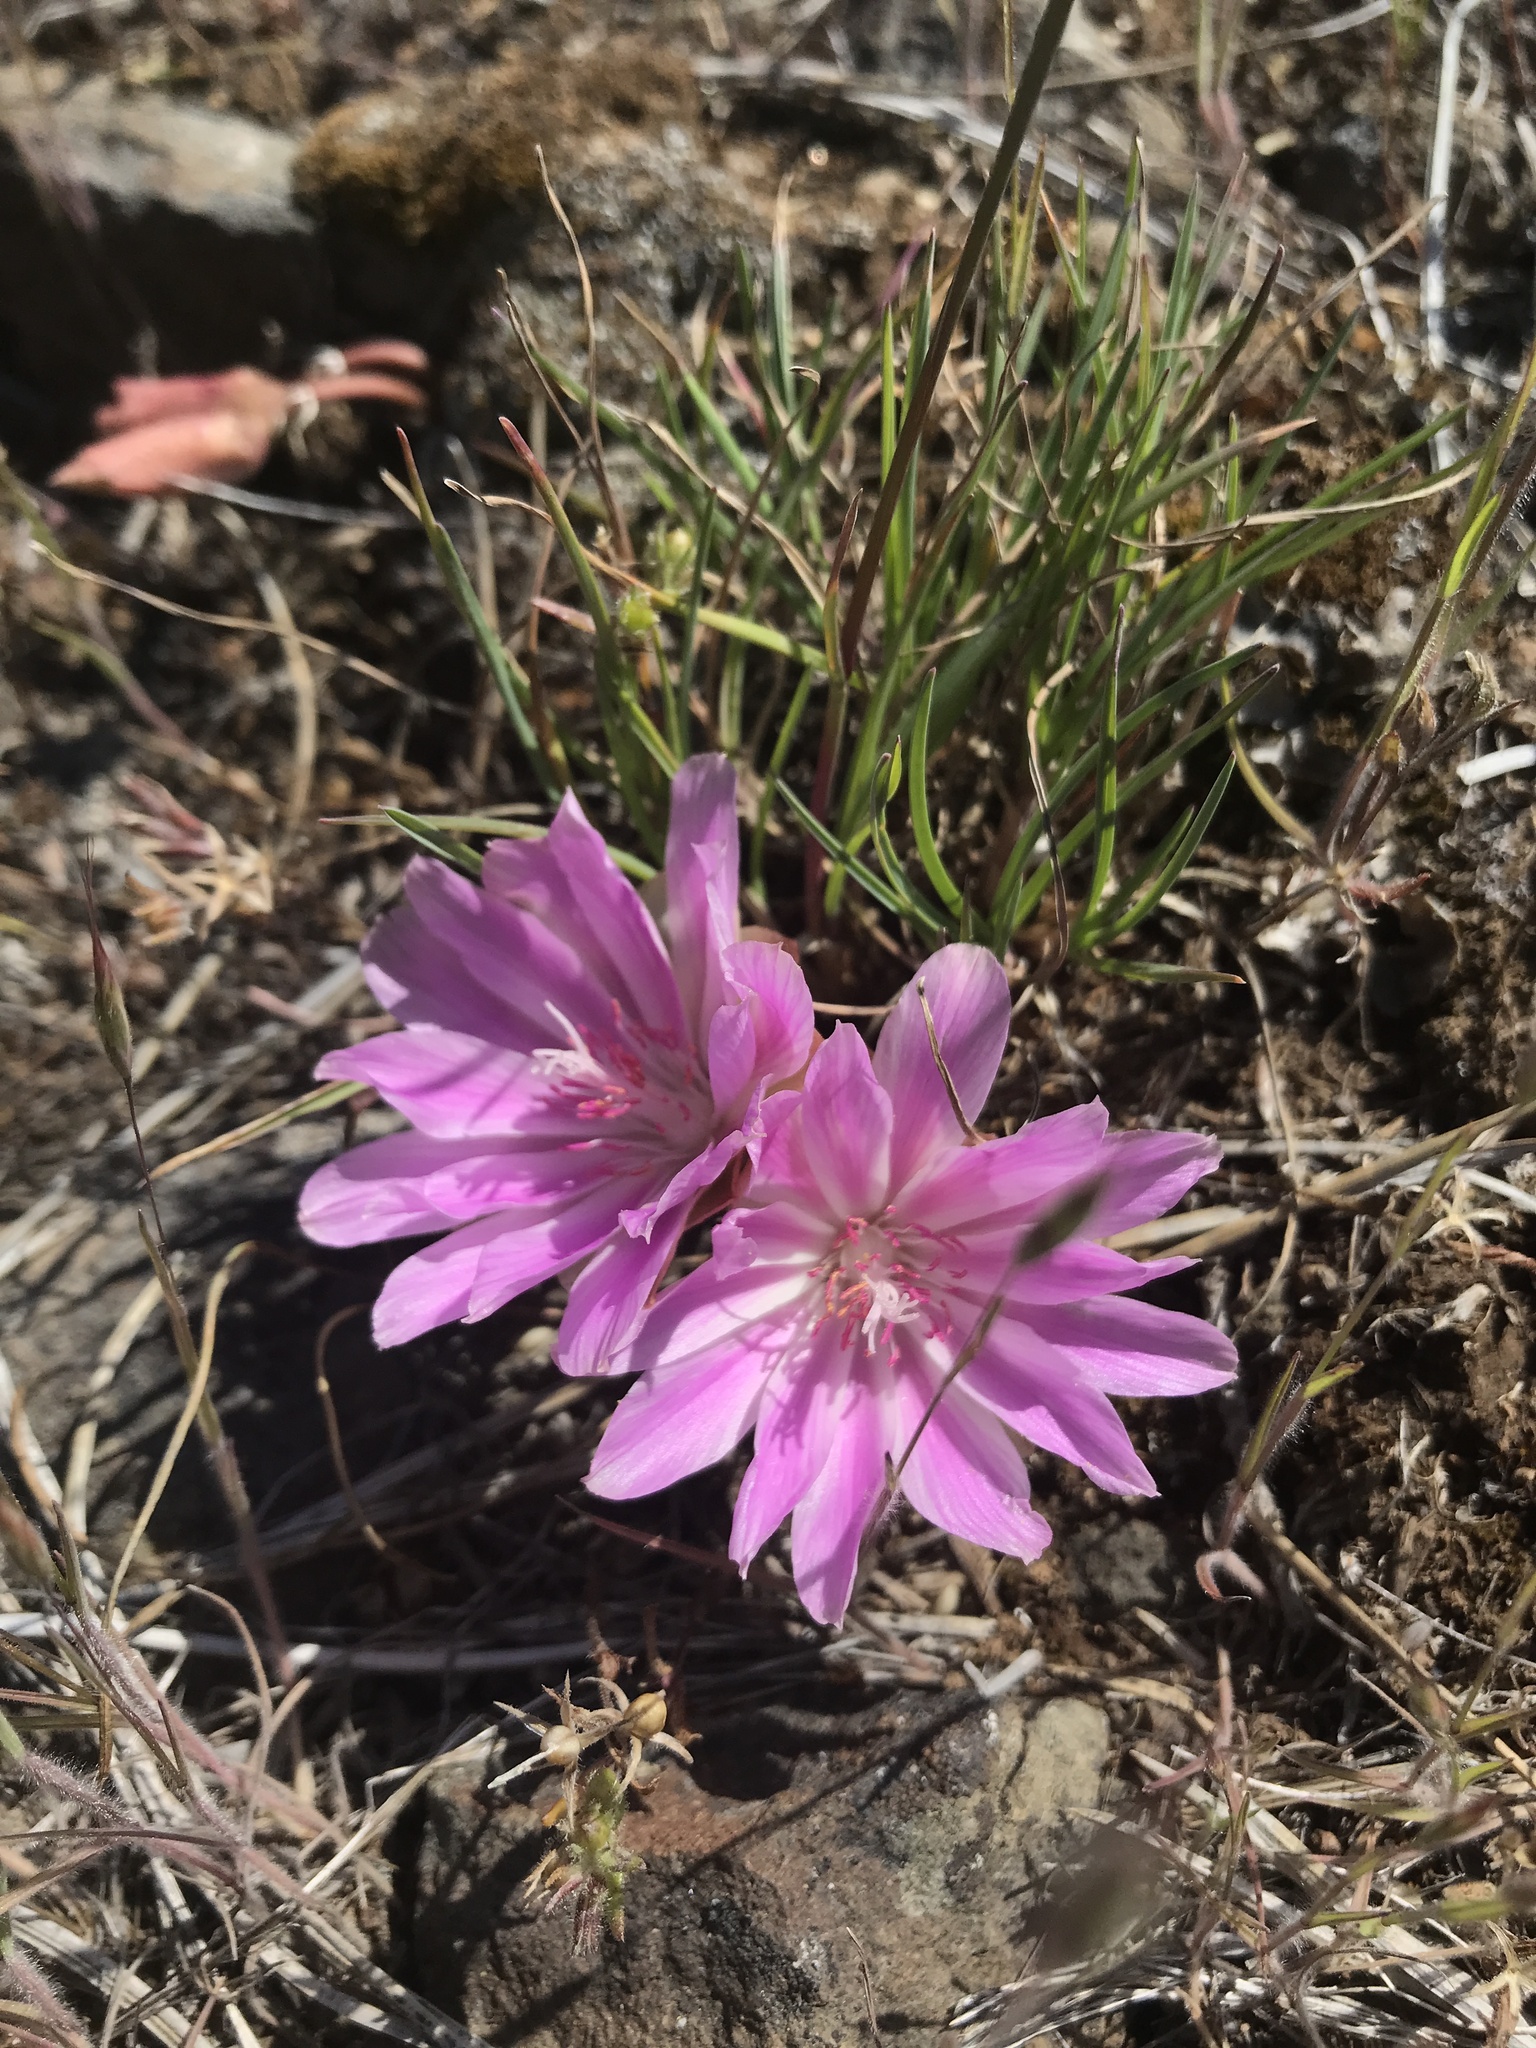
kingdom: Plantae
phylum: Tracheophyta
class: Magnoliopsida
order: Caryophyllales
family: Montiaceae
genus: Lewisia
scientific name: Lewisia rediviva
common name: Bitter-root
